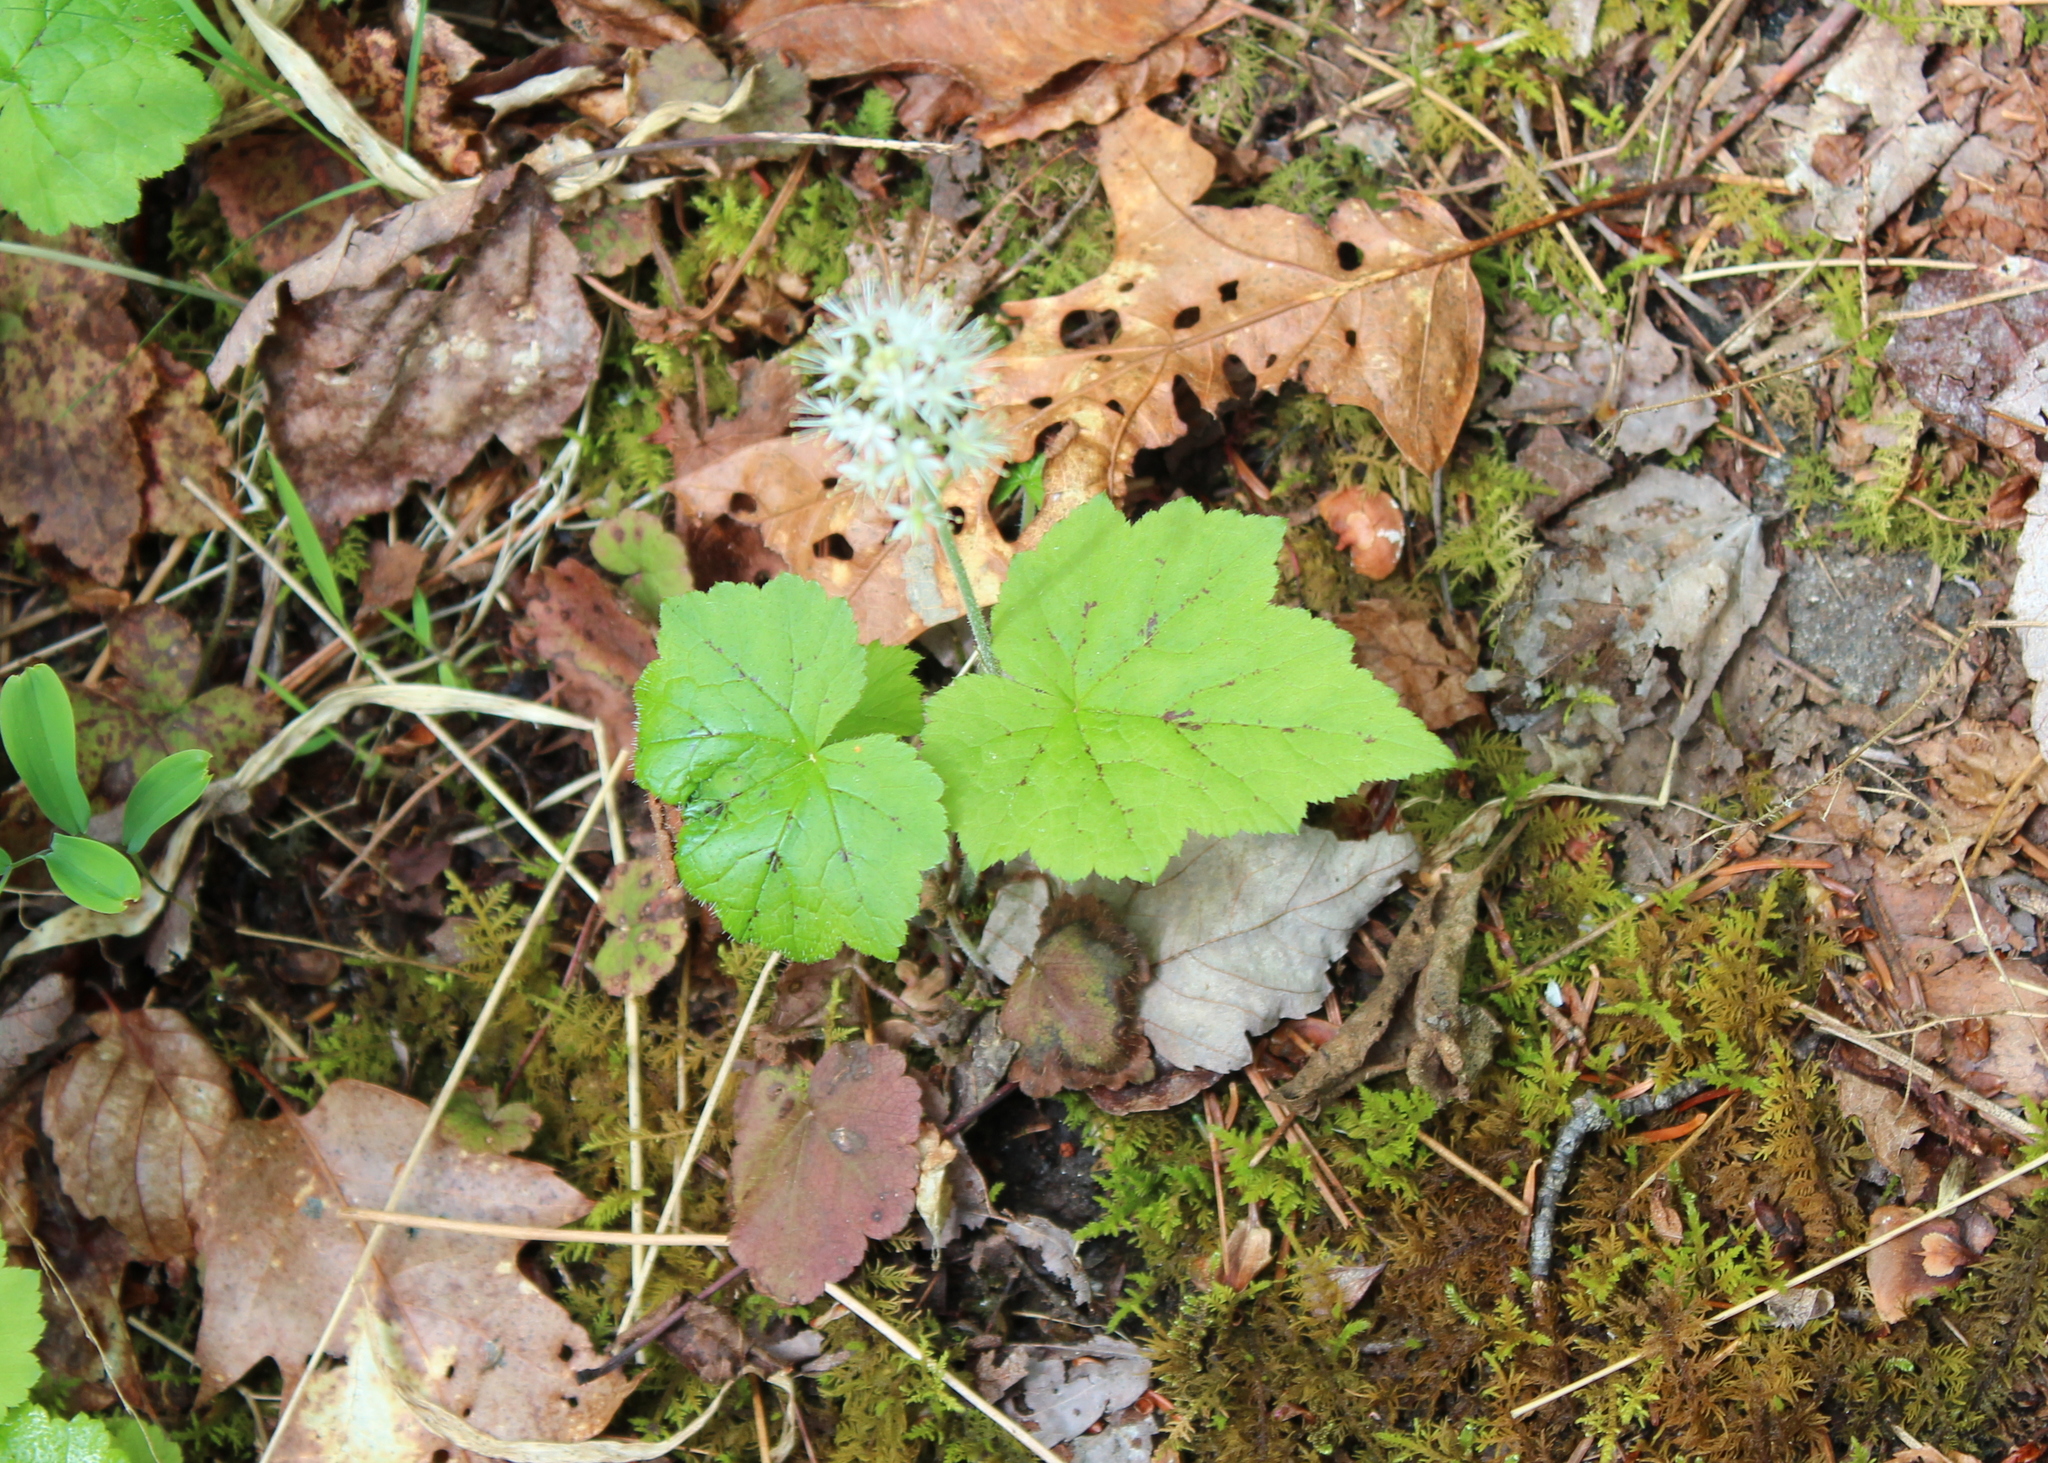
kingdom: Plantae
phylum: Tracheophyta
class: Magnoliopsida
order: Saxifragales
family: Saxifragaceae
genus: Tiarella
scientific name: Tiarella stolonifera
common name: Stoloniferous foamflower
